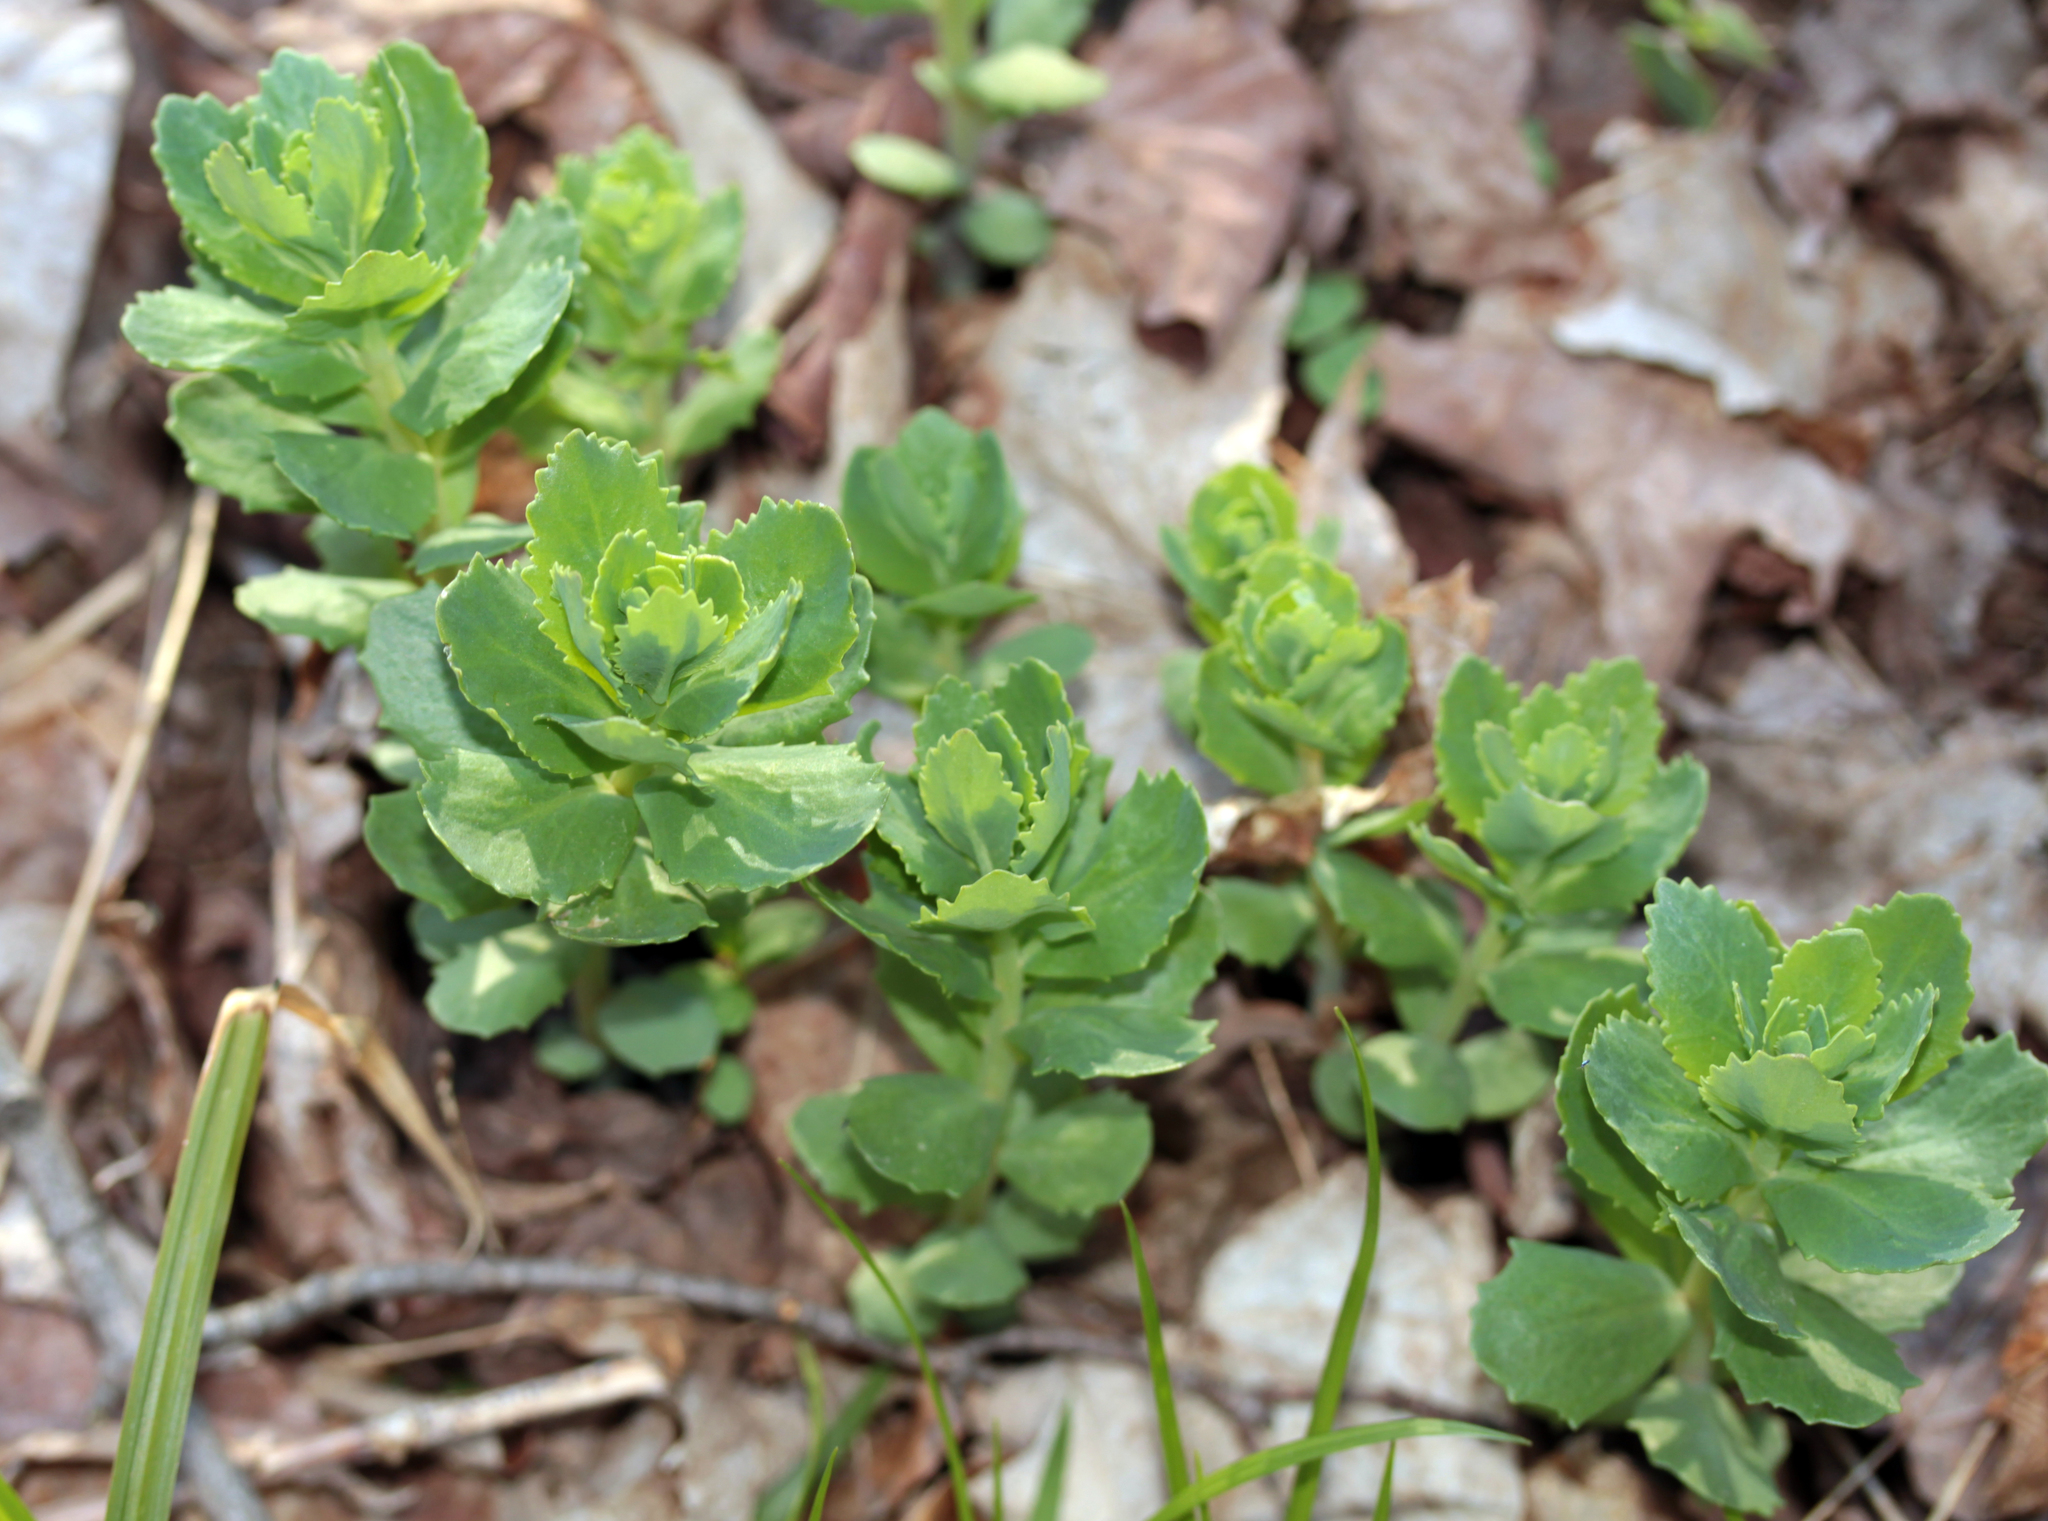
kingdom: Plantae
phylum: Tracheophyta
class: Magnoliopsida
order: Saxifragales
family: Crassulaceae
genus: Hylotelephium
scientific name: Hylotelephium telephium
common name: Live-forever
